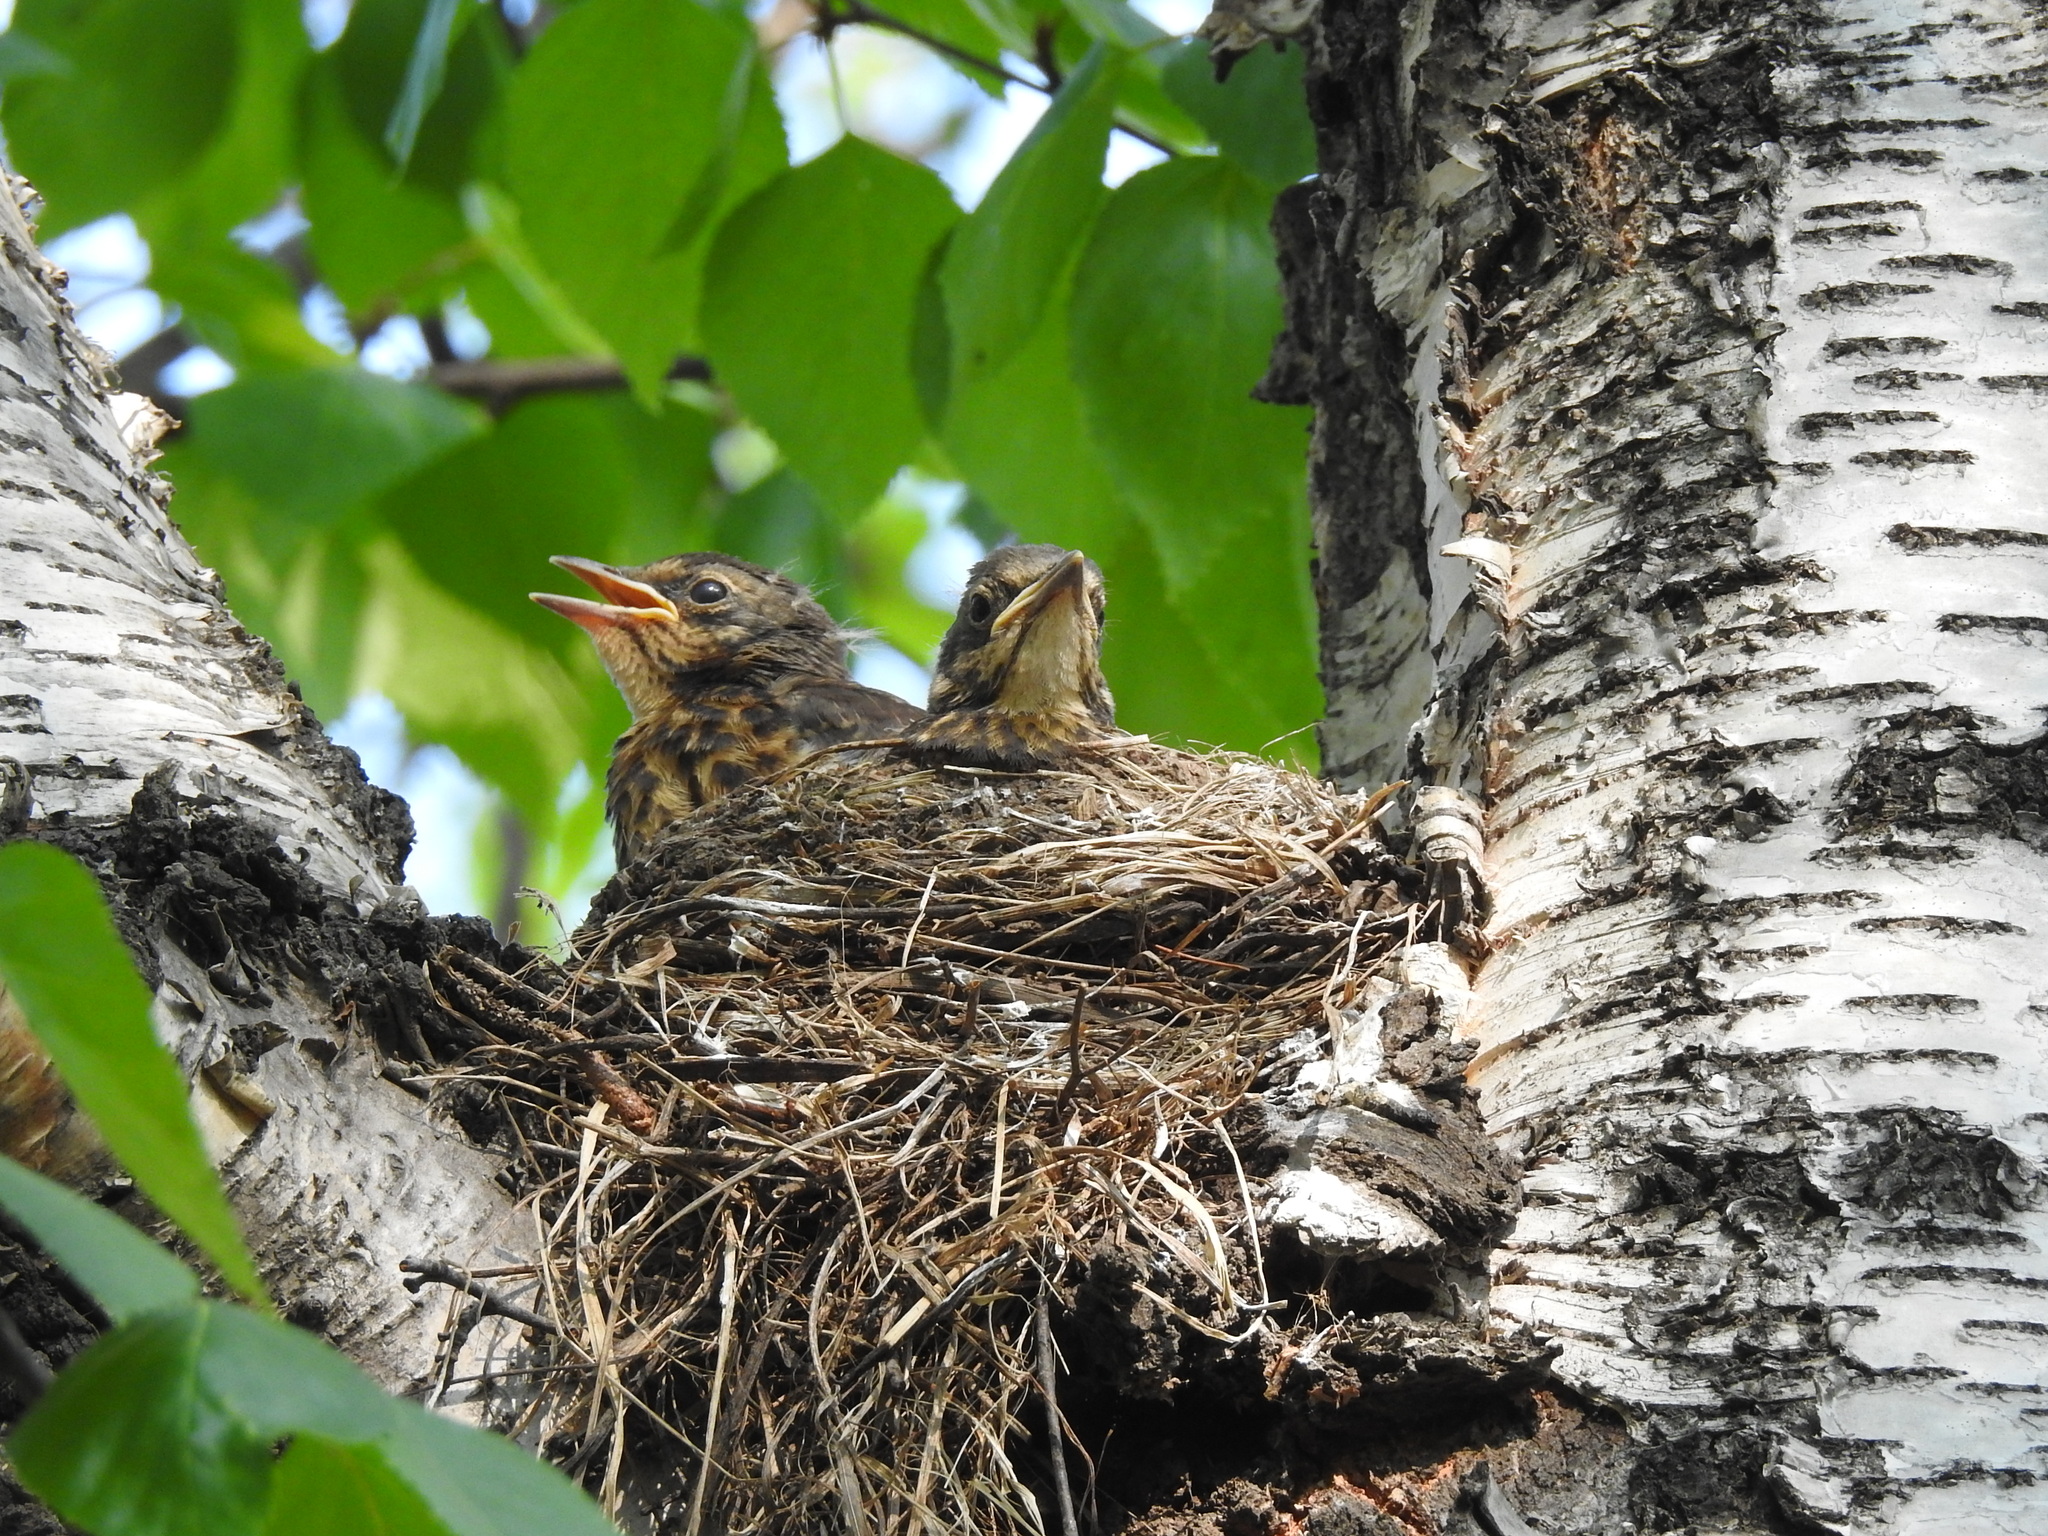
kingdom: Animalia
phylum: Chordata
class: Aves
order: Passeriformes
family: Turdidae
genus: Turdus
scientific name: Turdus pilaris
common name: Fieldfare
